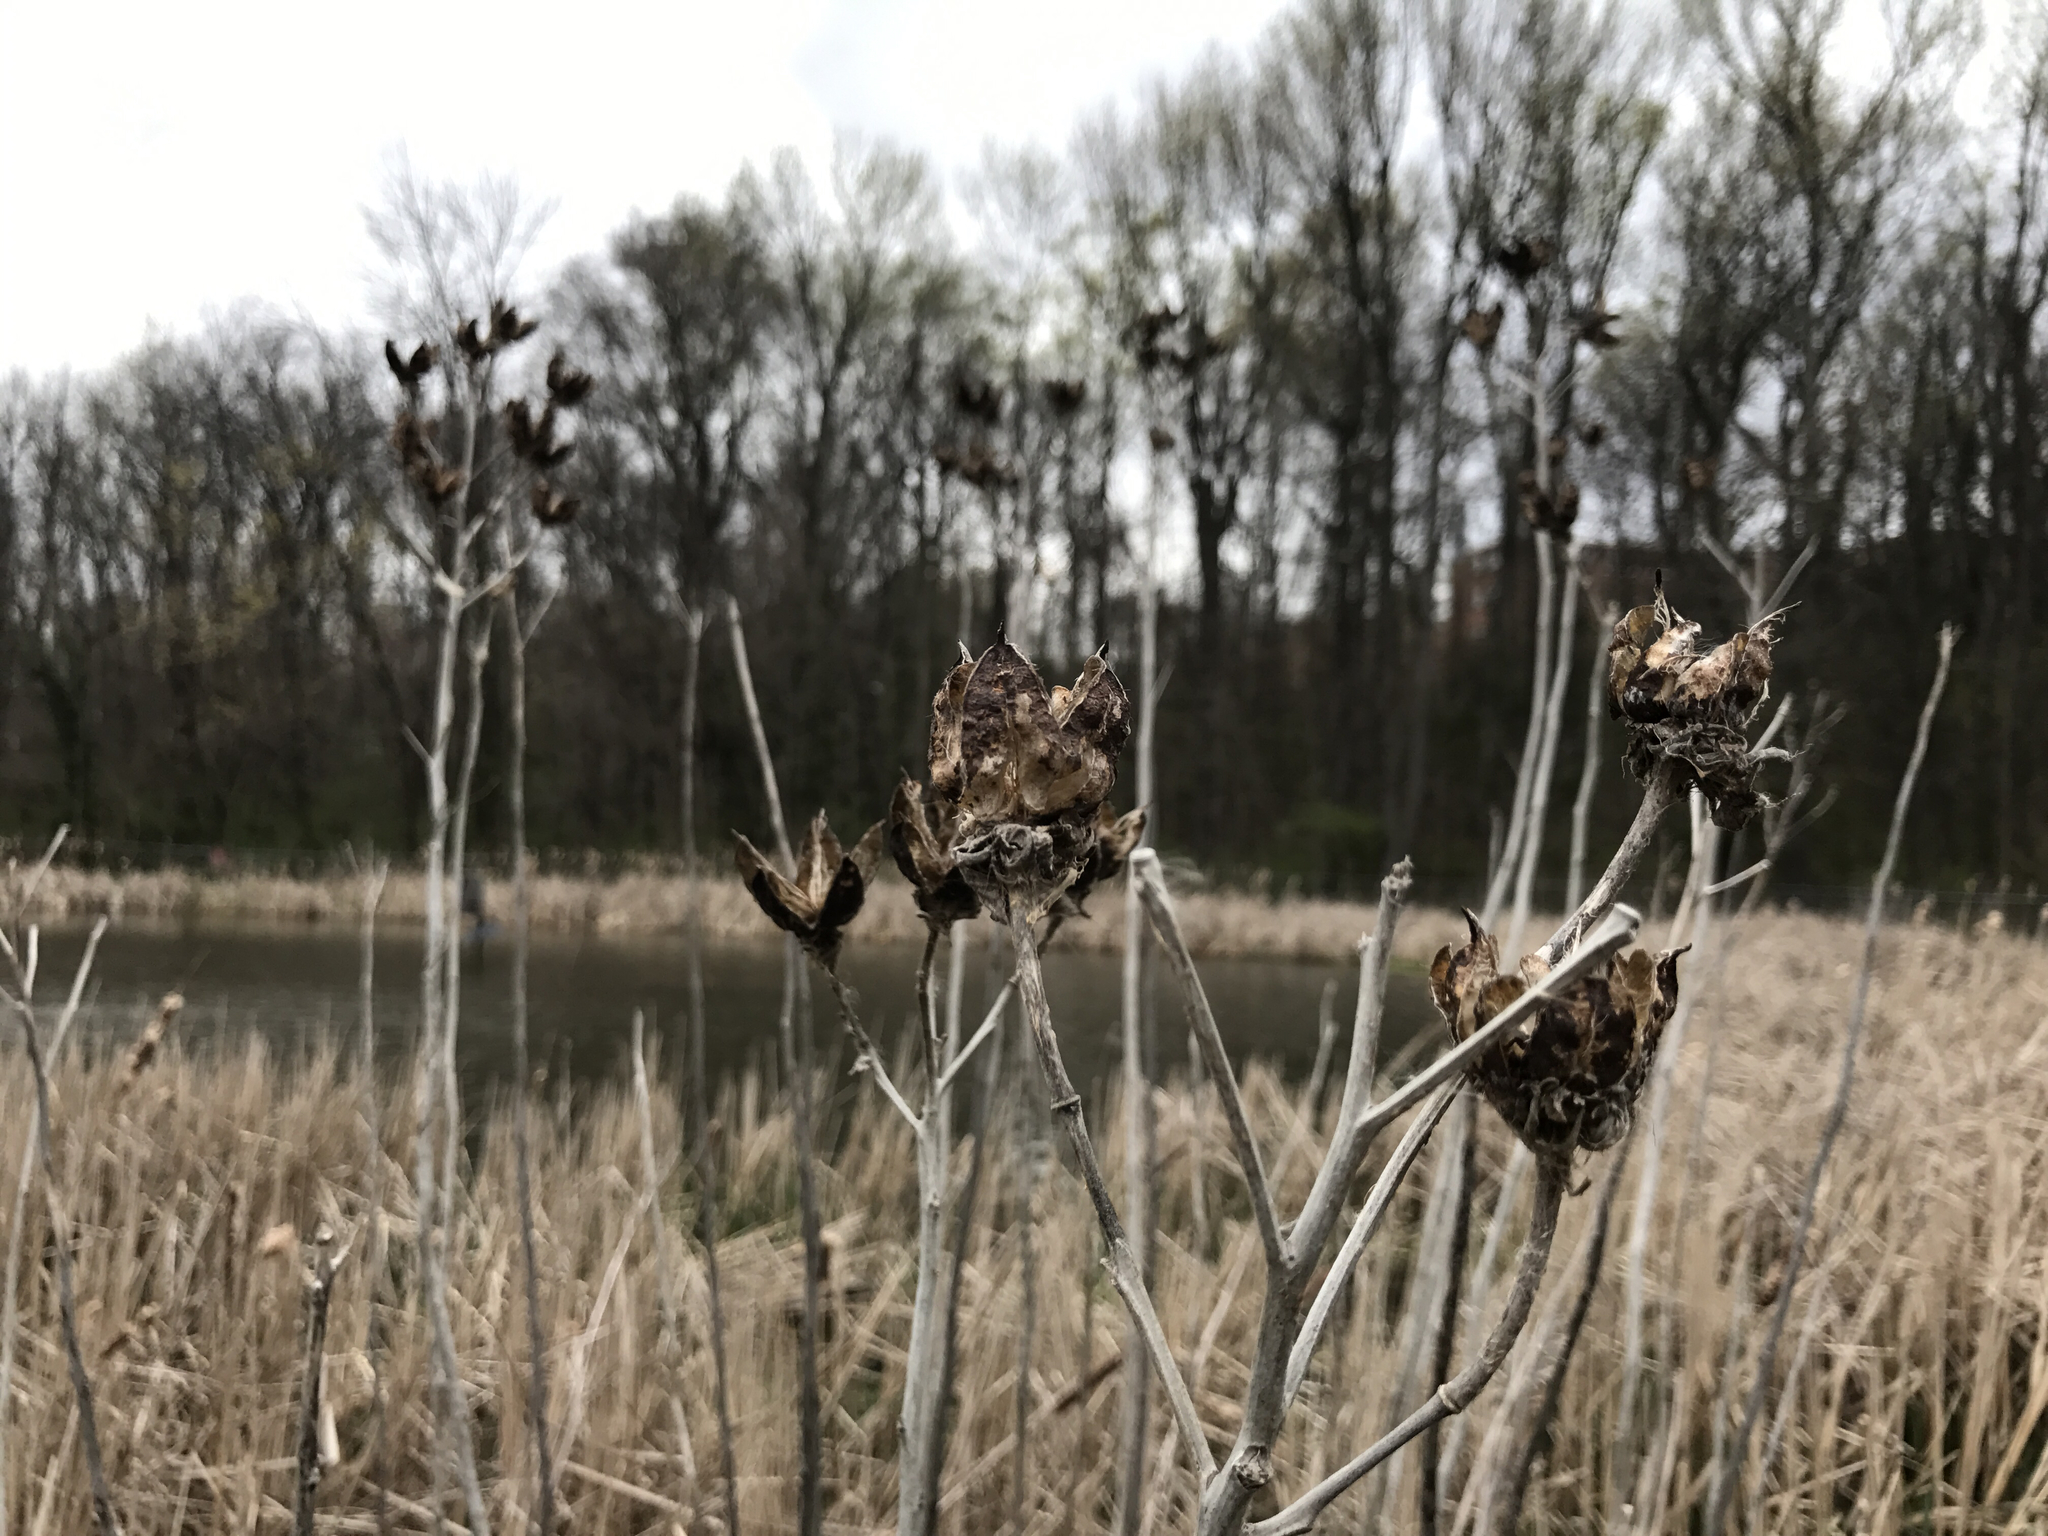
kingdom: Plantae
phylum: Tracheophyta
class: Magnoliopsida
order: Malvales
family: Malvaceae
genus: Hibiscus
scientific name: Hibiscus moscheutos
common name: Common rose-mallow
